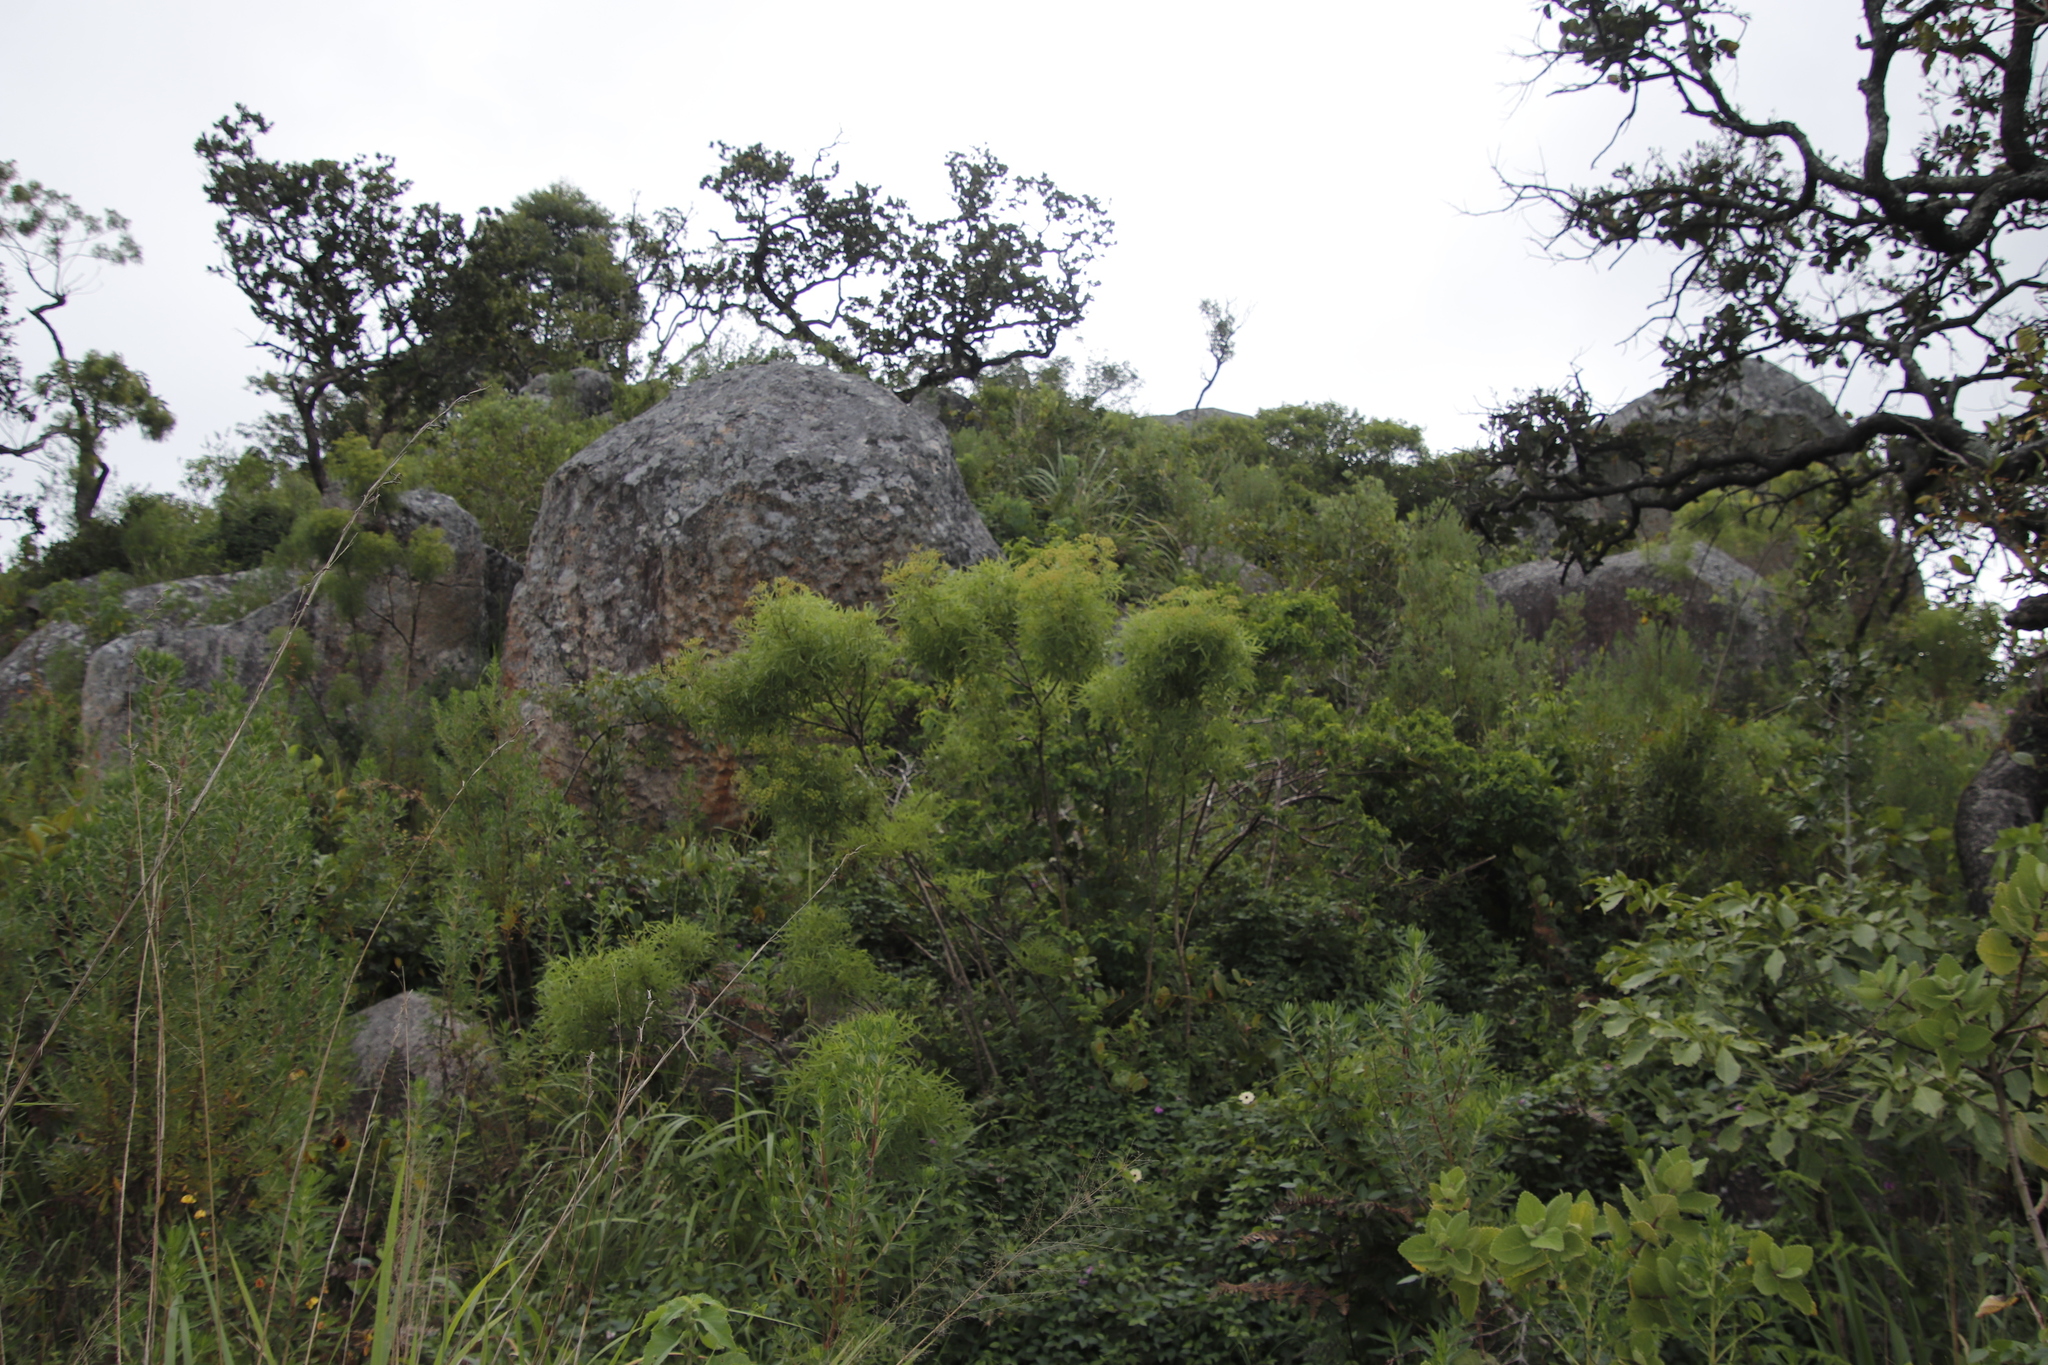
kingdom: Plantae
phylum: Tracheophyta
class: Magnoliopsida
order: Apiales
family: Apiaceae
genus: Heteromorpha
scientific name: Heteromorpha montana
